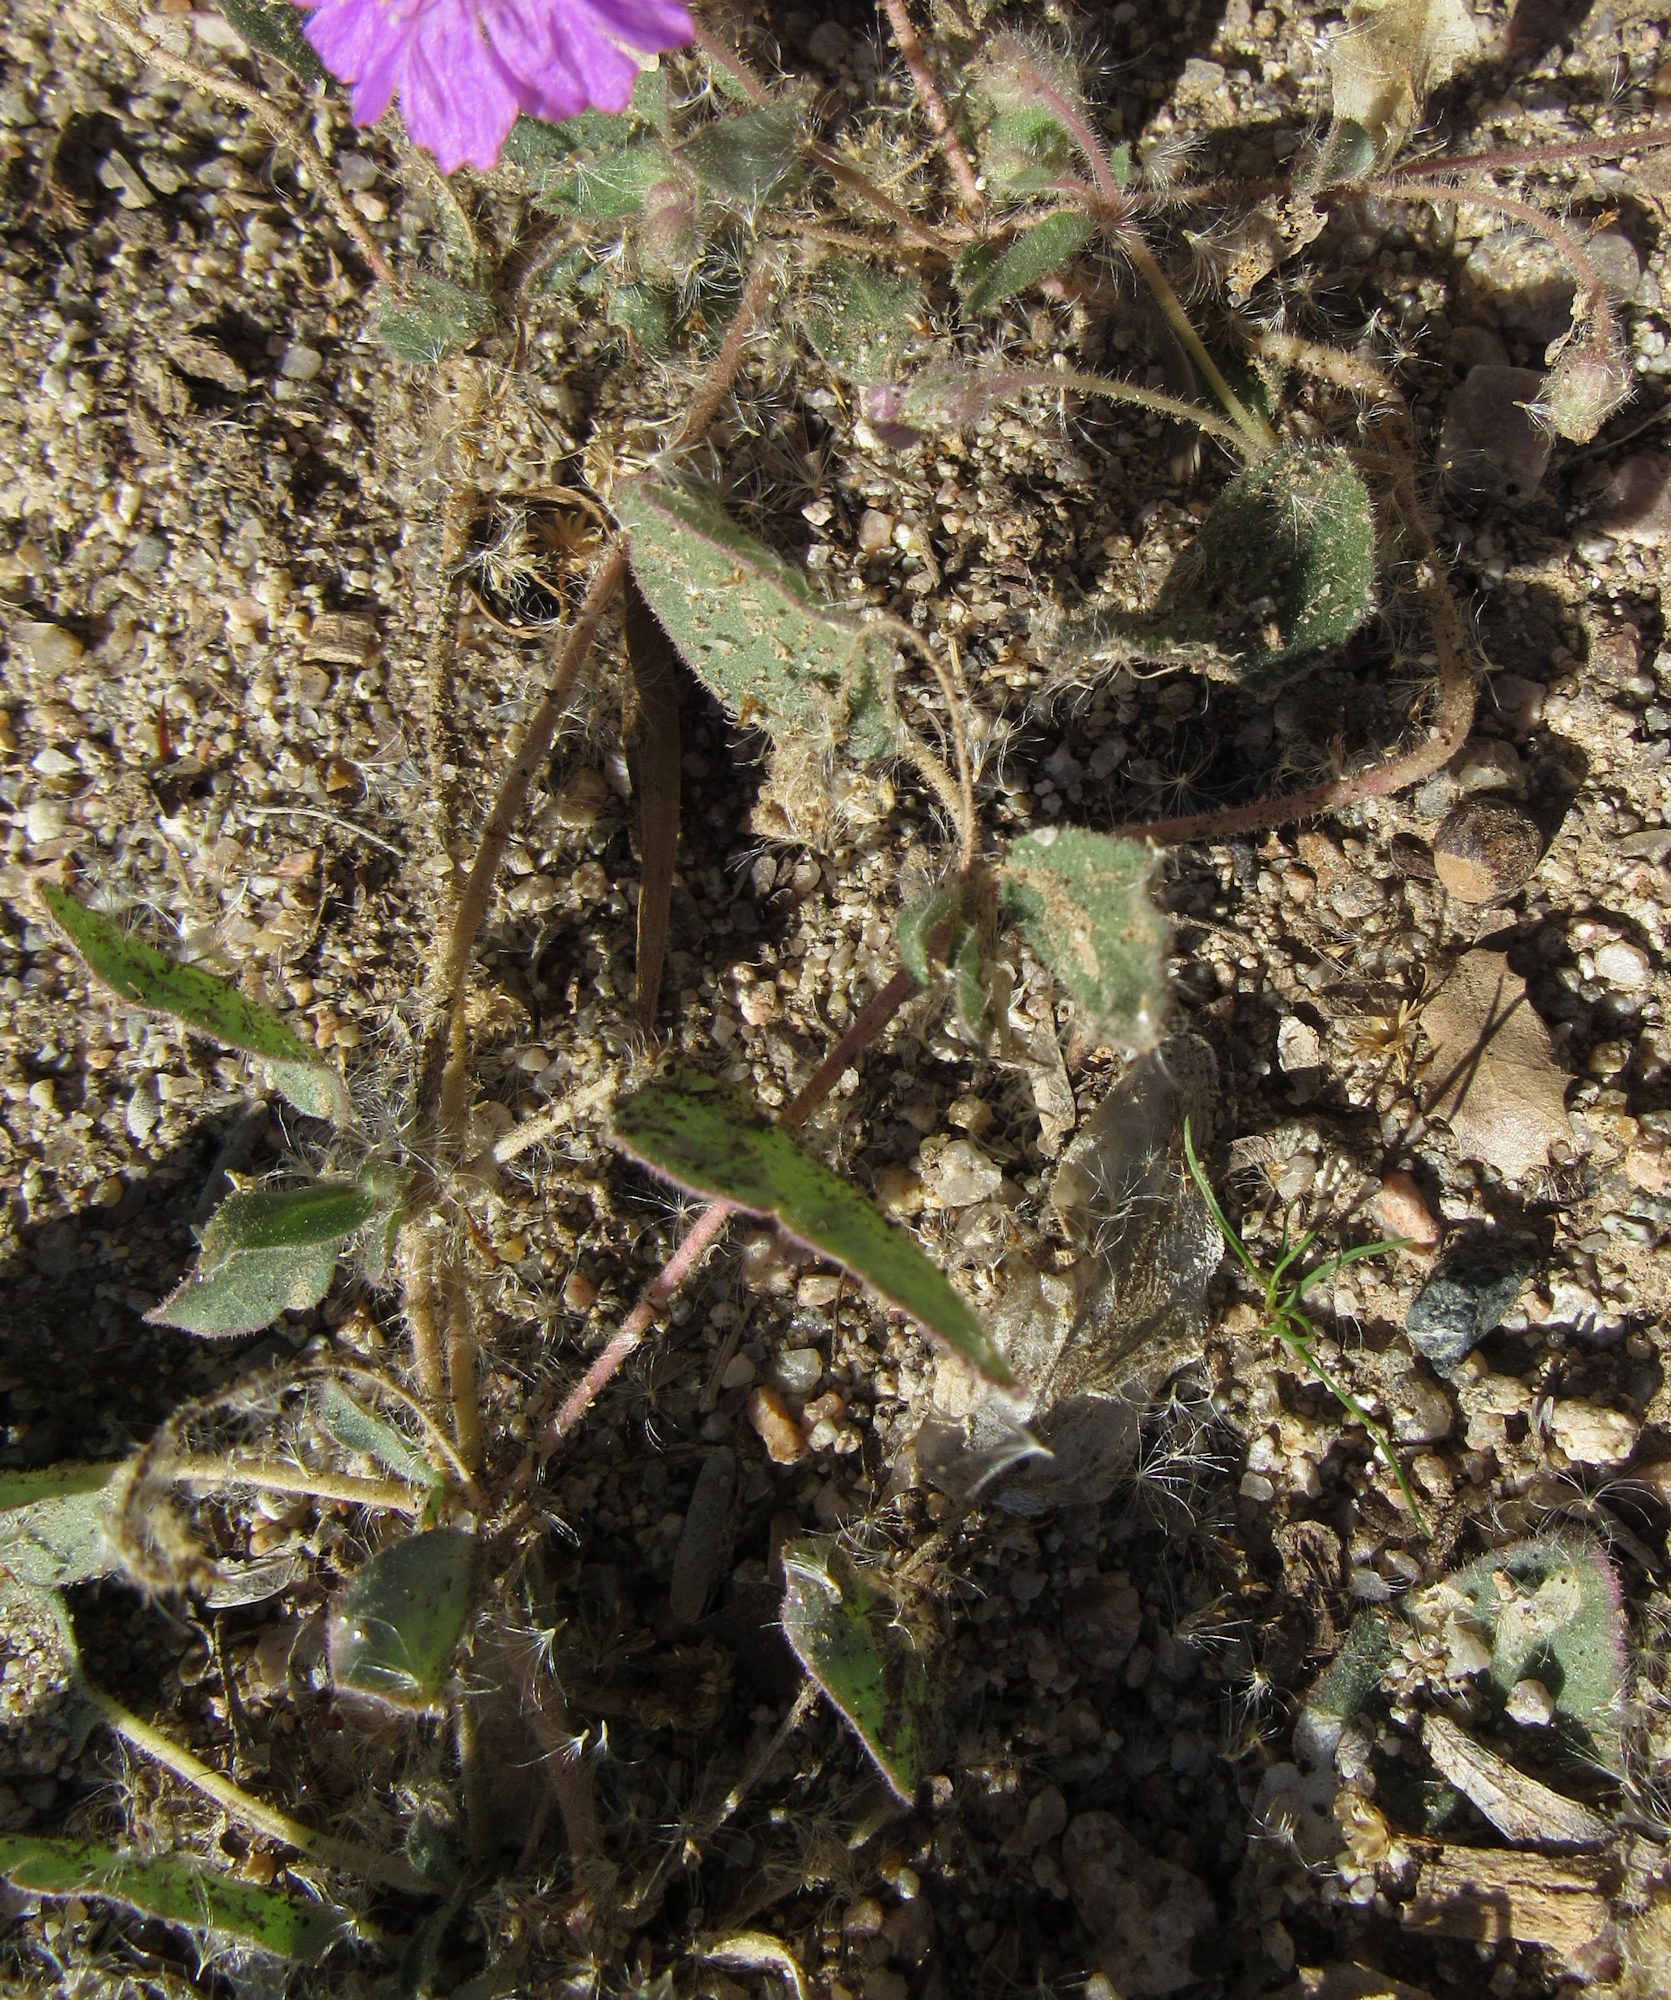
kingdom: Plantae
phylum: Tracheophyta
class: Magnoliopsida
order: Caryophyllales
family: Nyctaginaceae
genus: Allionia
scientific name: Allionia incarnata
